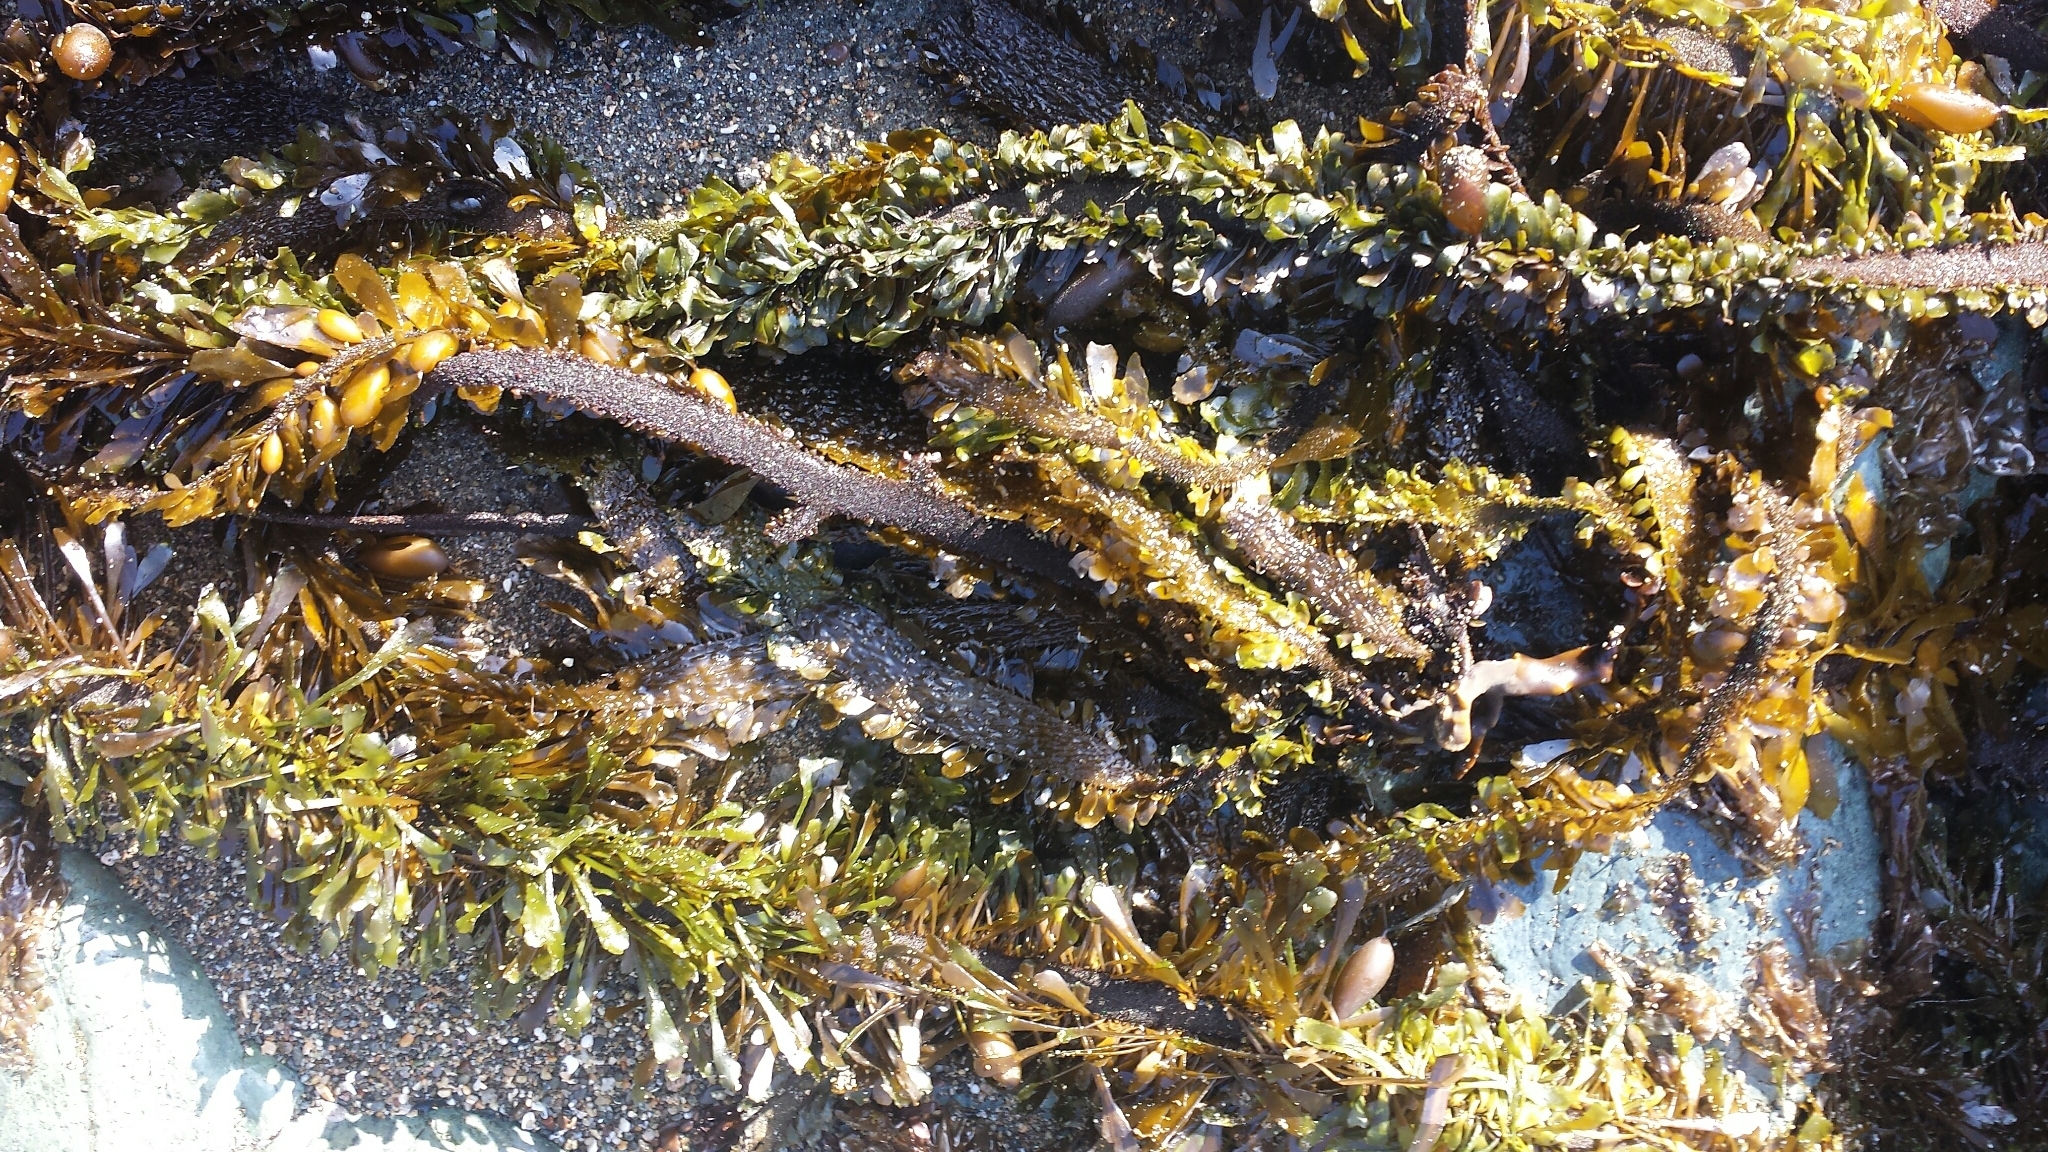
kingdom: Chromista
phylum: Ochrophyta
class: Phaeophyceae
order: Laminariales
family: Lessoniaceae
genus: Egregia
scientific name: Egregia menziesii
